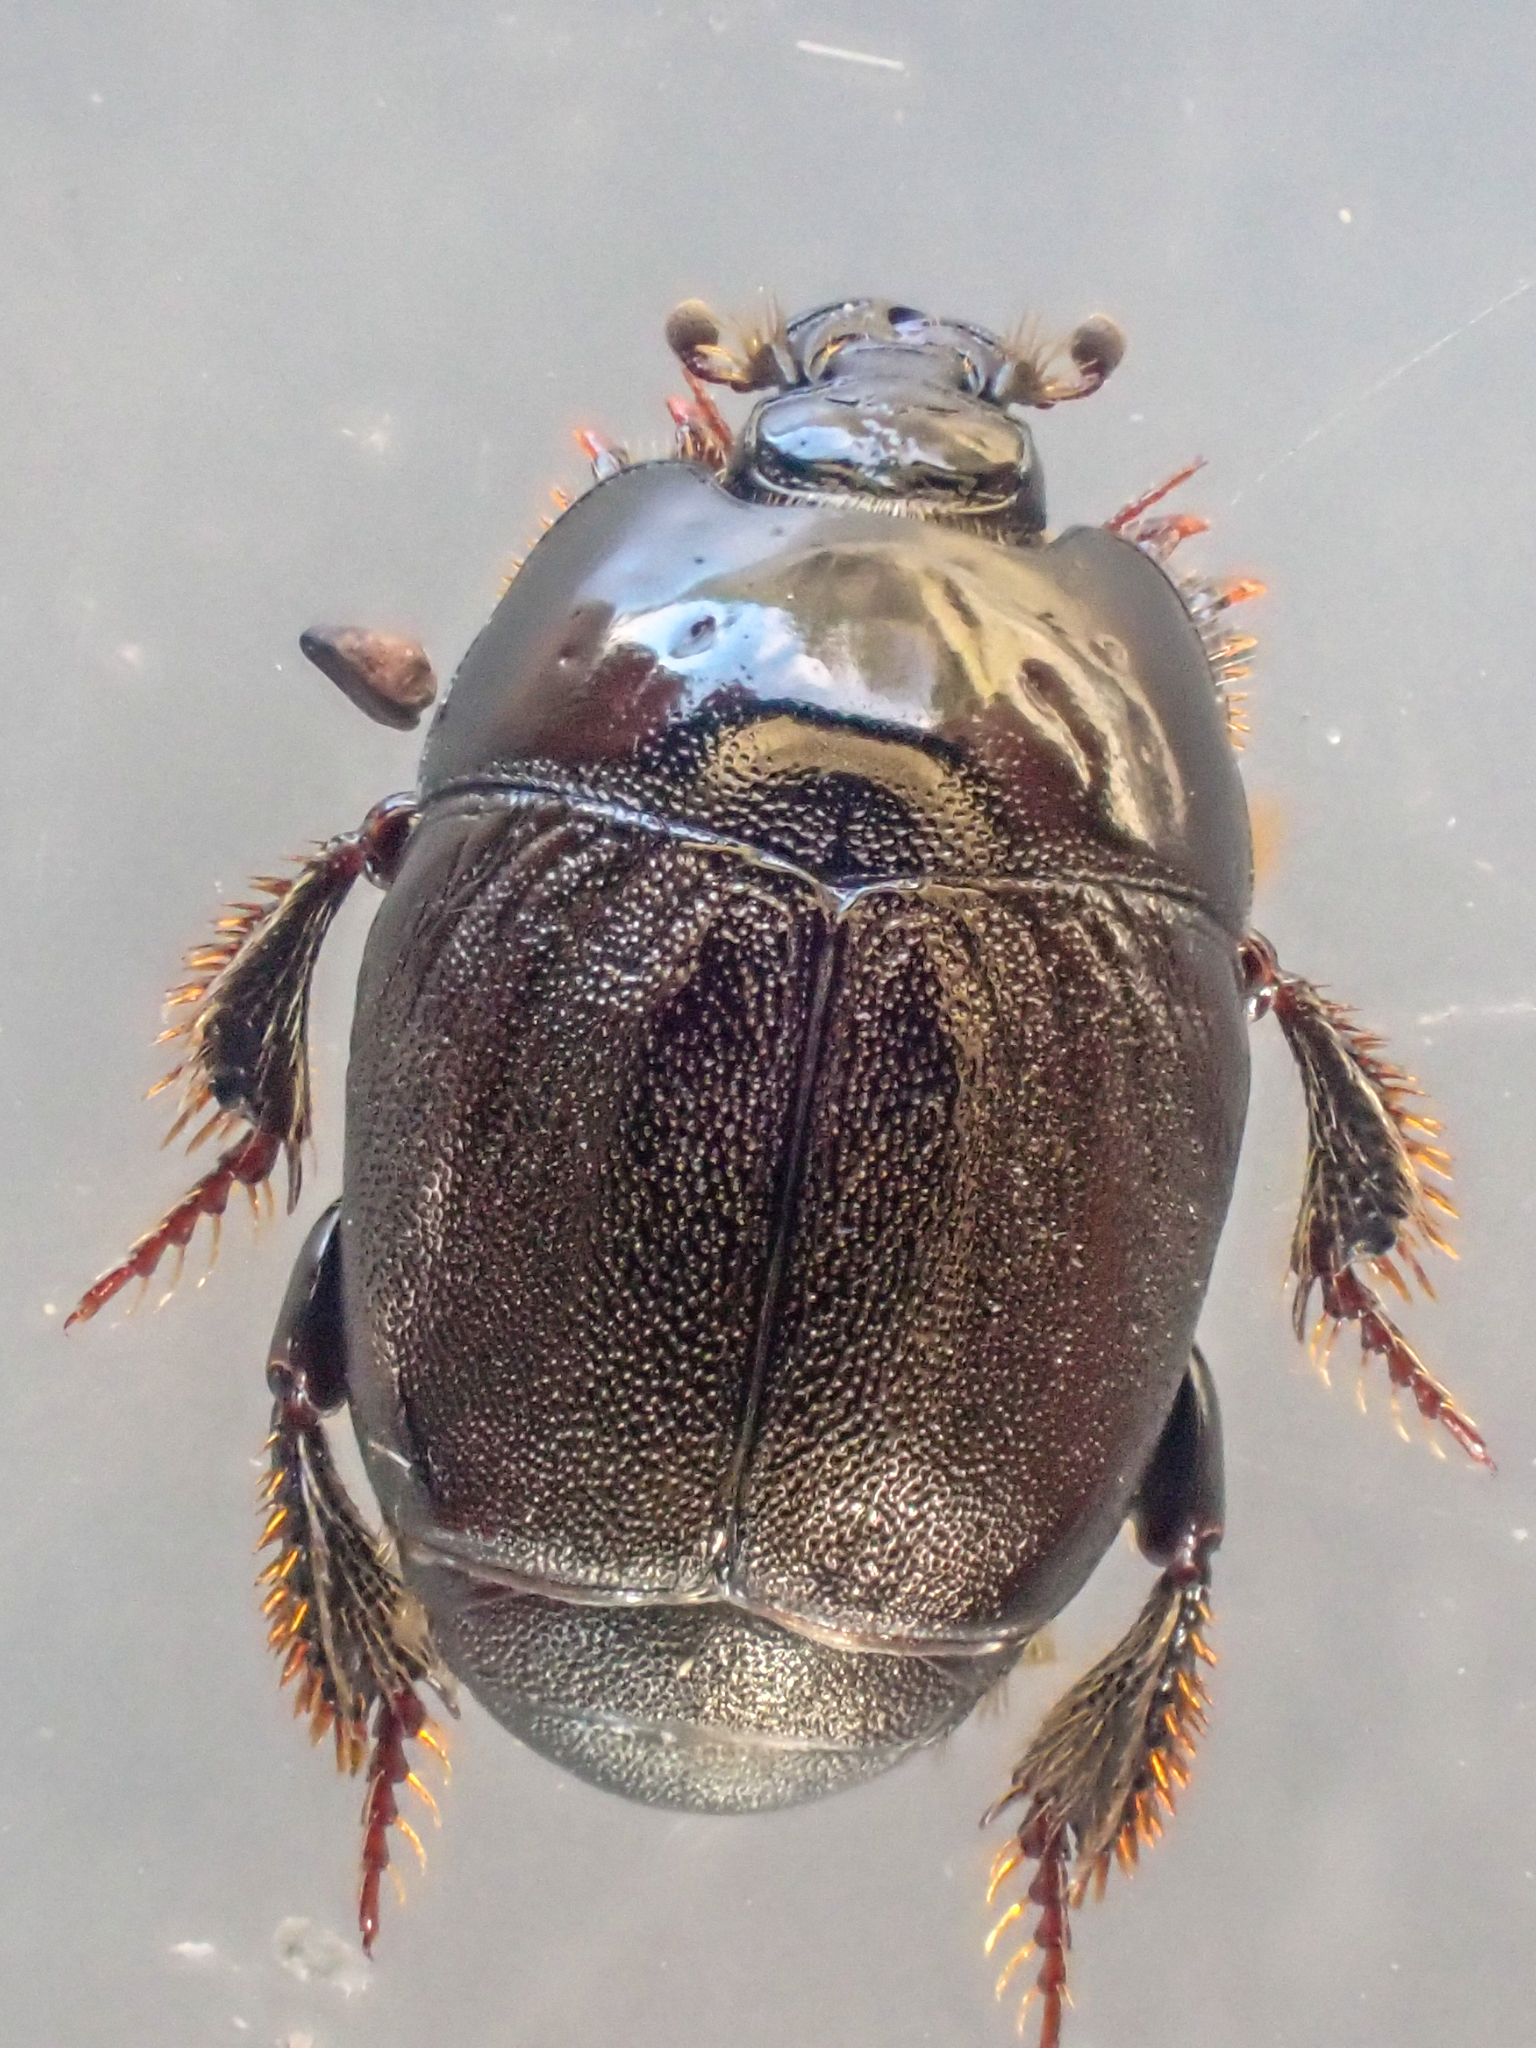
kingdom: Animalia
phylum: Arthropoda
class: Insecta
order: Coleoptera
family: Histeridae
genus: Hypocaccus
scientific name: Hypocaccus sulcifrons
